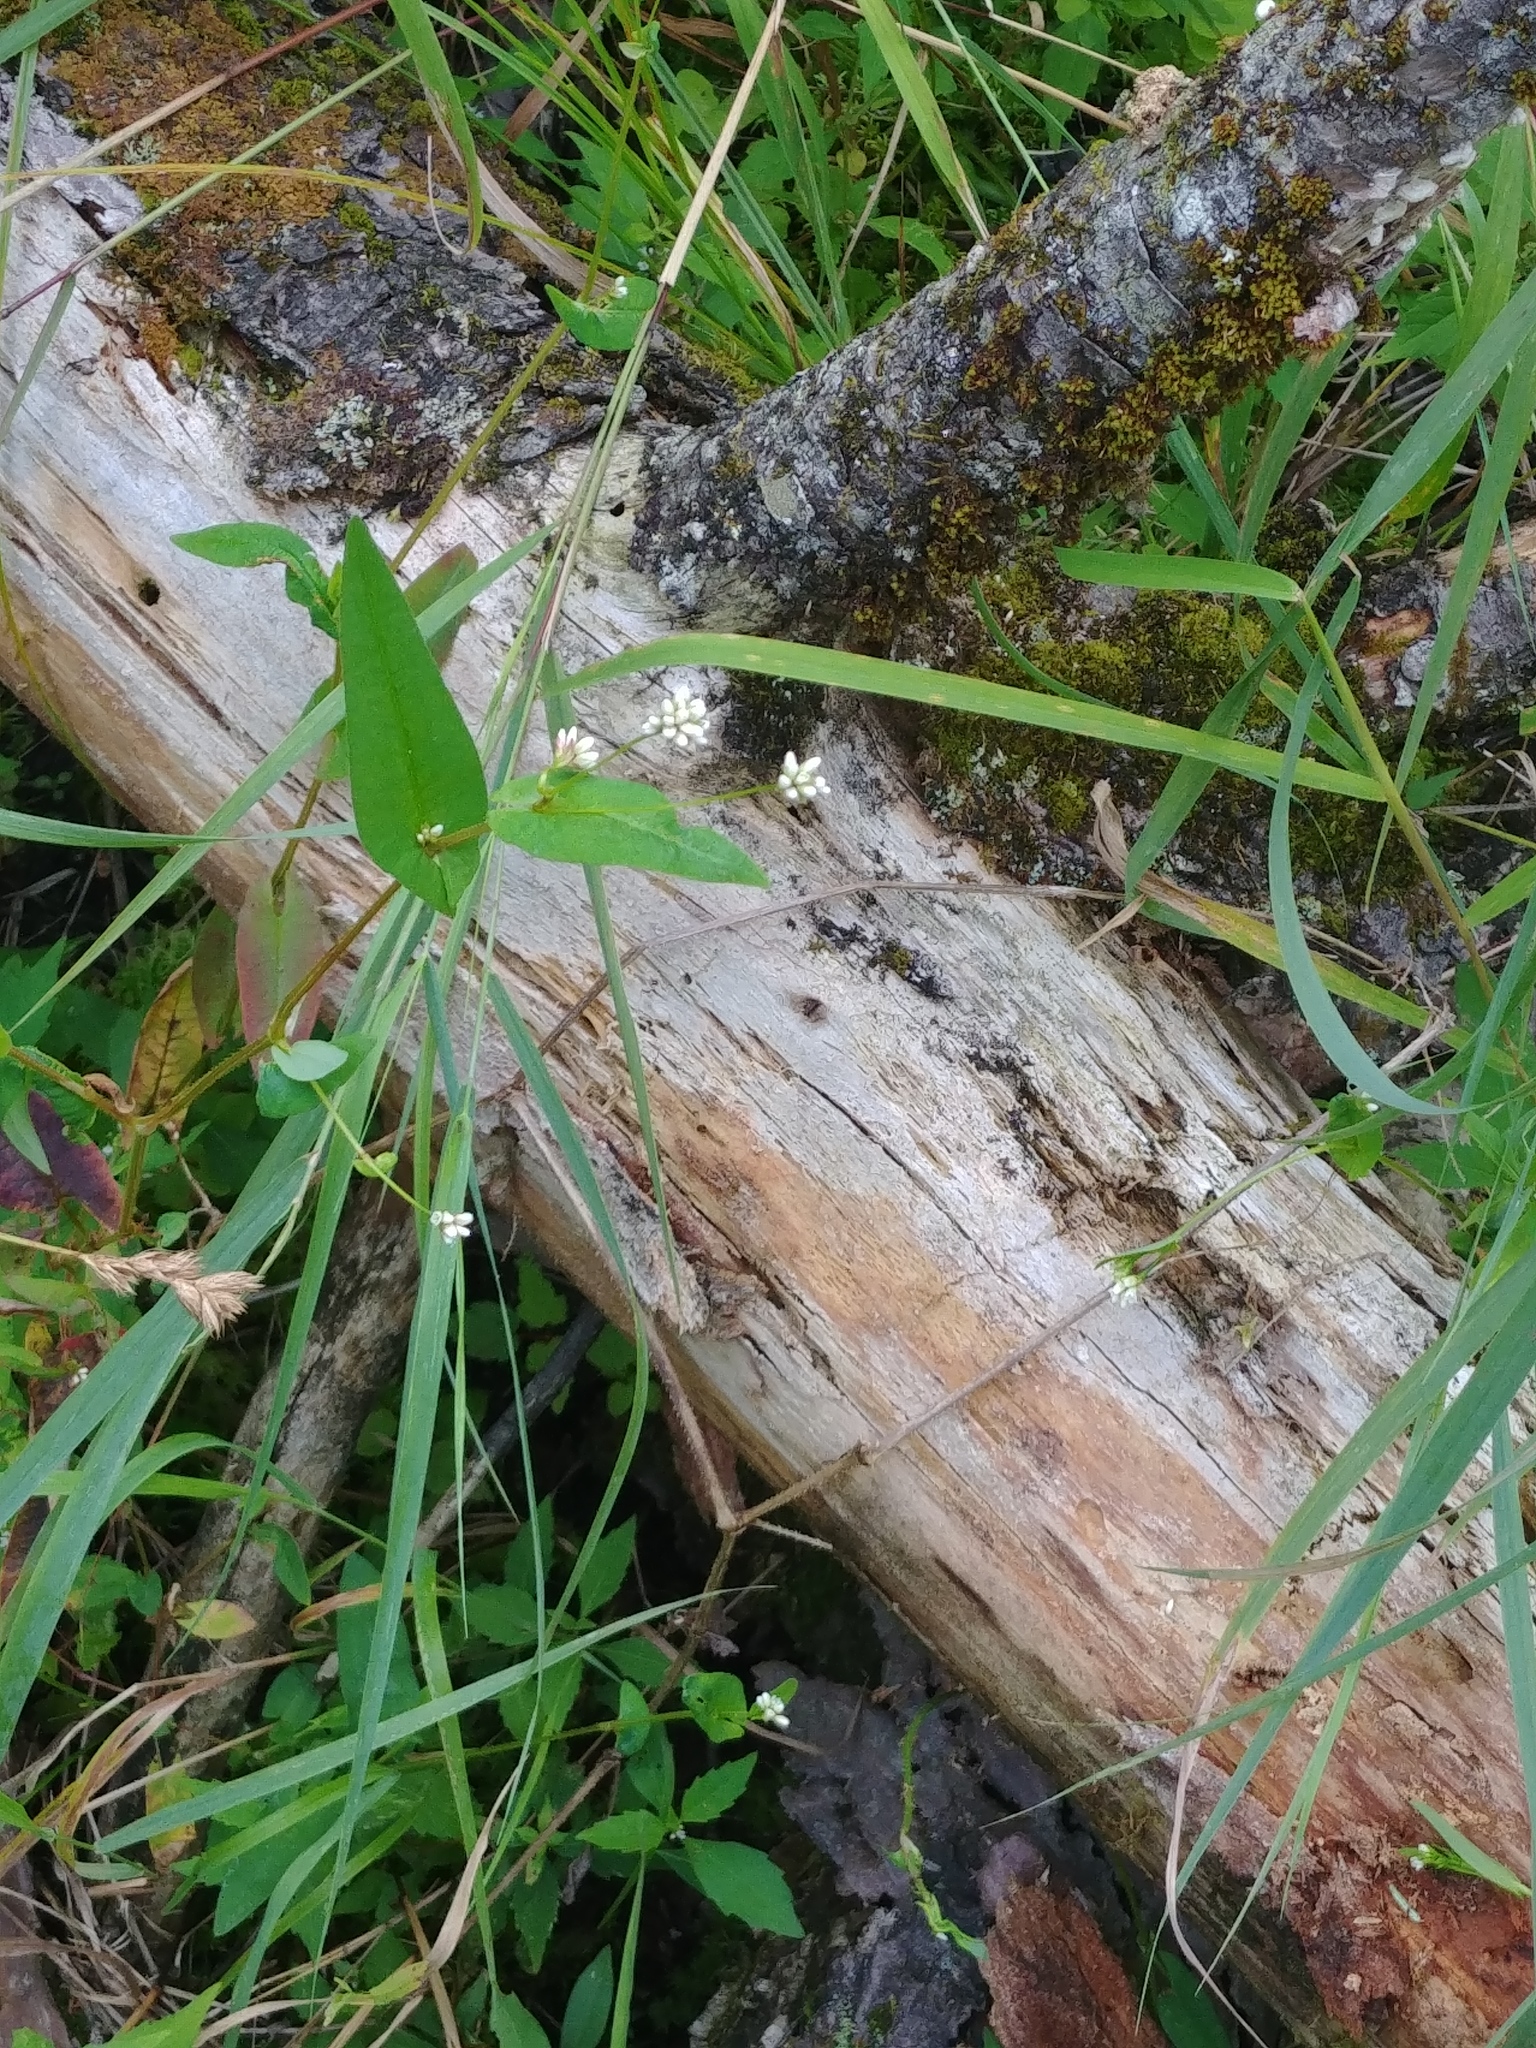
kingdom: Plantae
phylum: Tracheophyta
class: Magnoliopsida
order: Caryophyllales
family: Polygonaceae
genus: Persicaria
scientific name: Persicaria sagittata
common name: American tearthumb
